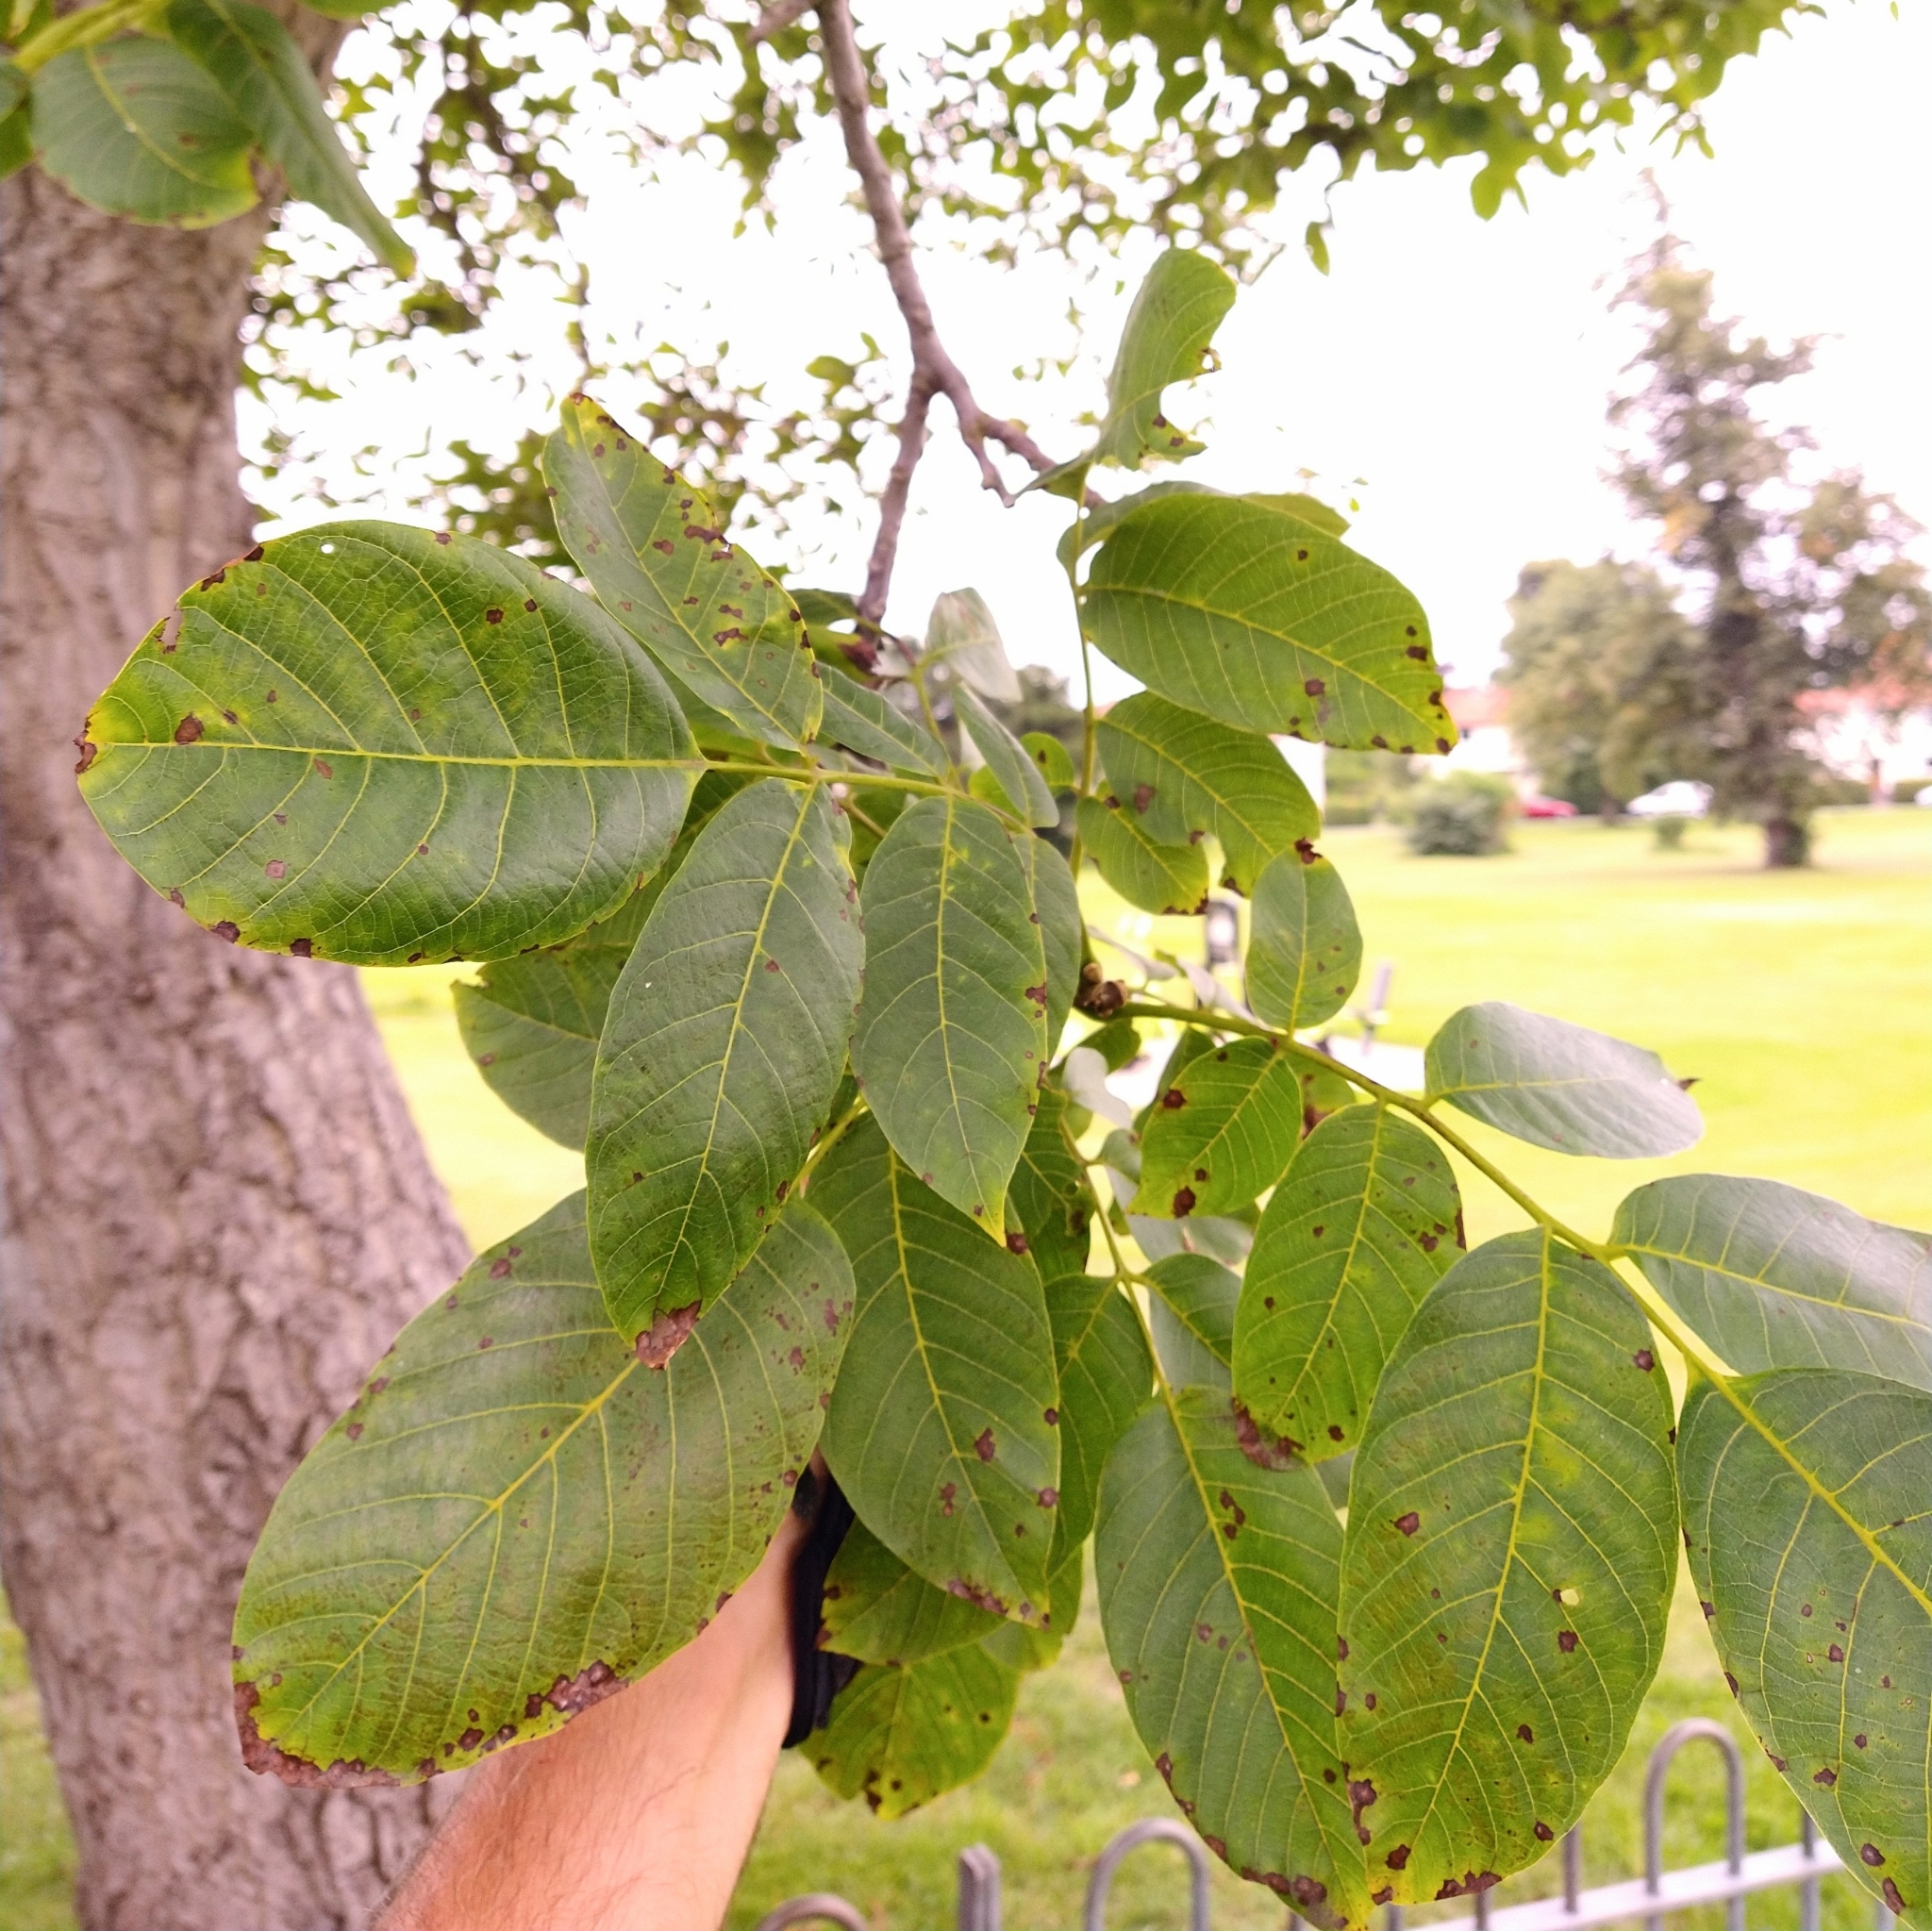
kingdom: Plantae
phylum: Tracheophyta
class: Magnoliopsida
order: Fagales
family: Juglandaceae
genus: Juglans
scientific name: Juglans regia
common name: Walnut
